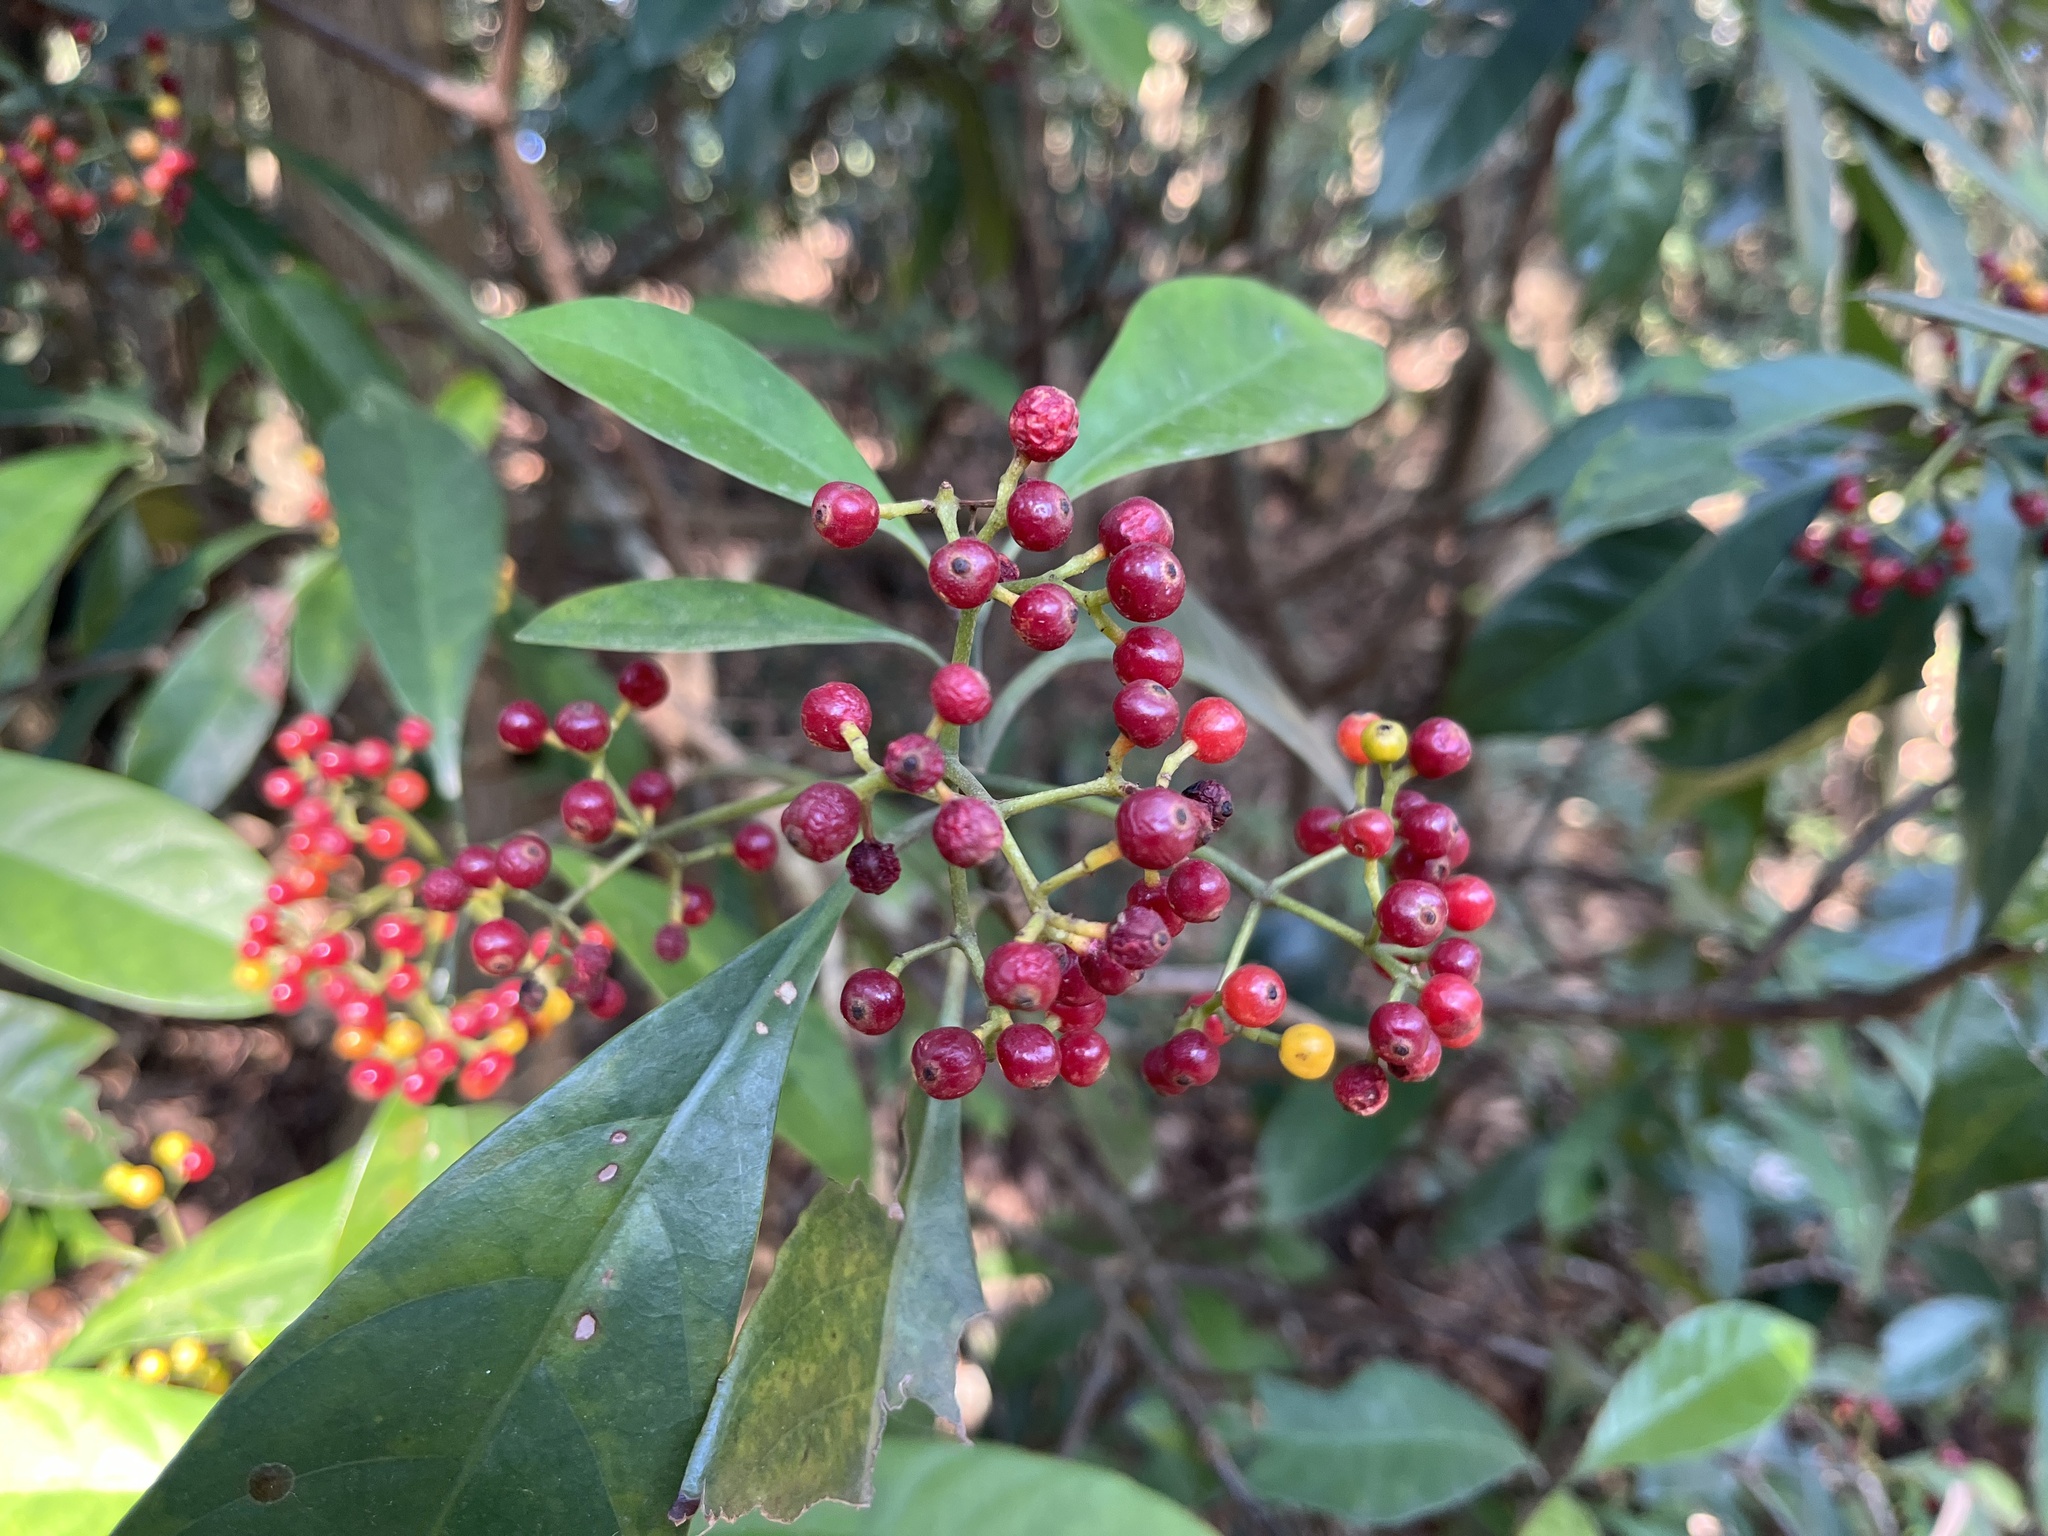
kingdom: Plantae
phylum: Tracheophyta
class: Magnoliopsida
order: Gentianales
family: Rubiaceae
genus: Psychotria
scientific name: Psychotria asiatica
